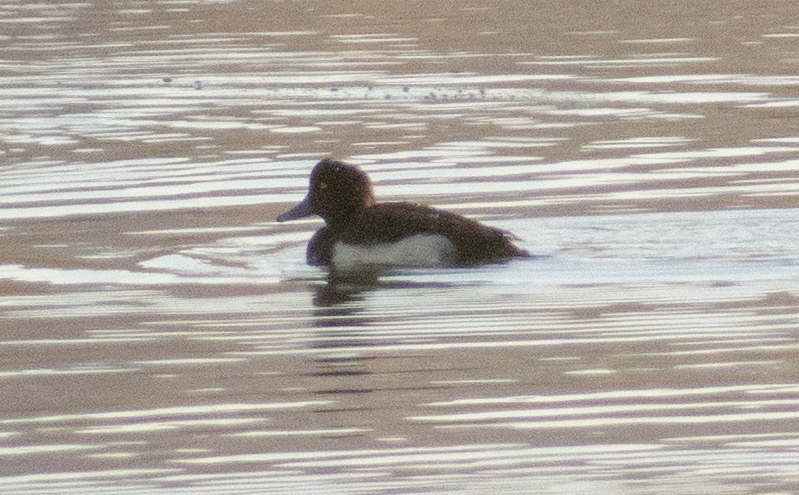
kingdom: Animalia
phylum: Chordata
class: Aves
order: Anseriformes
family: Anatidae
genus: Aythya
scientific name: Aythya fuligula
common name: Tufted duck
